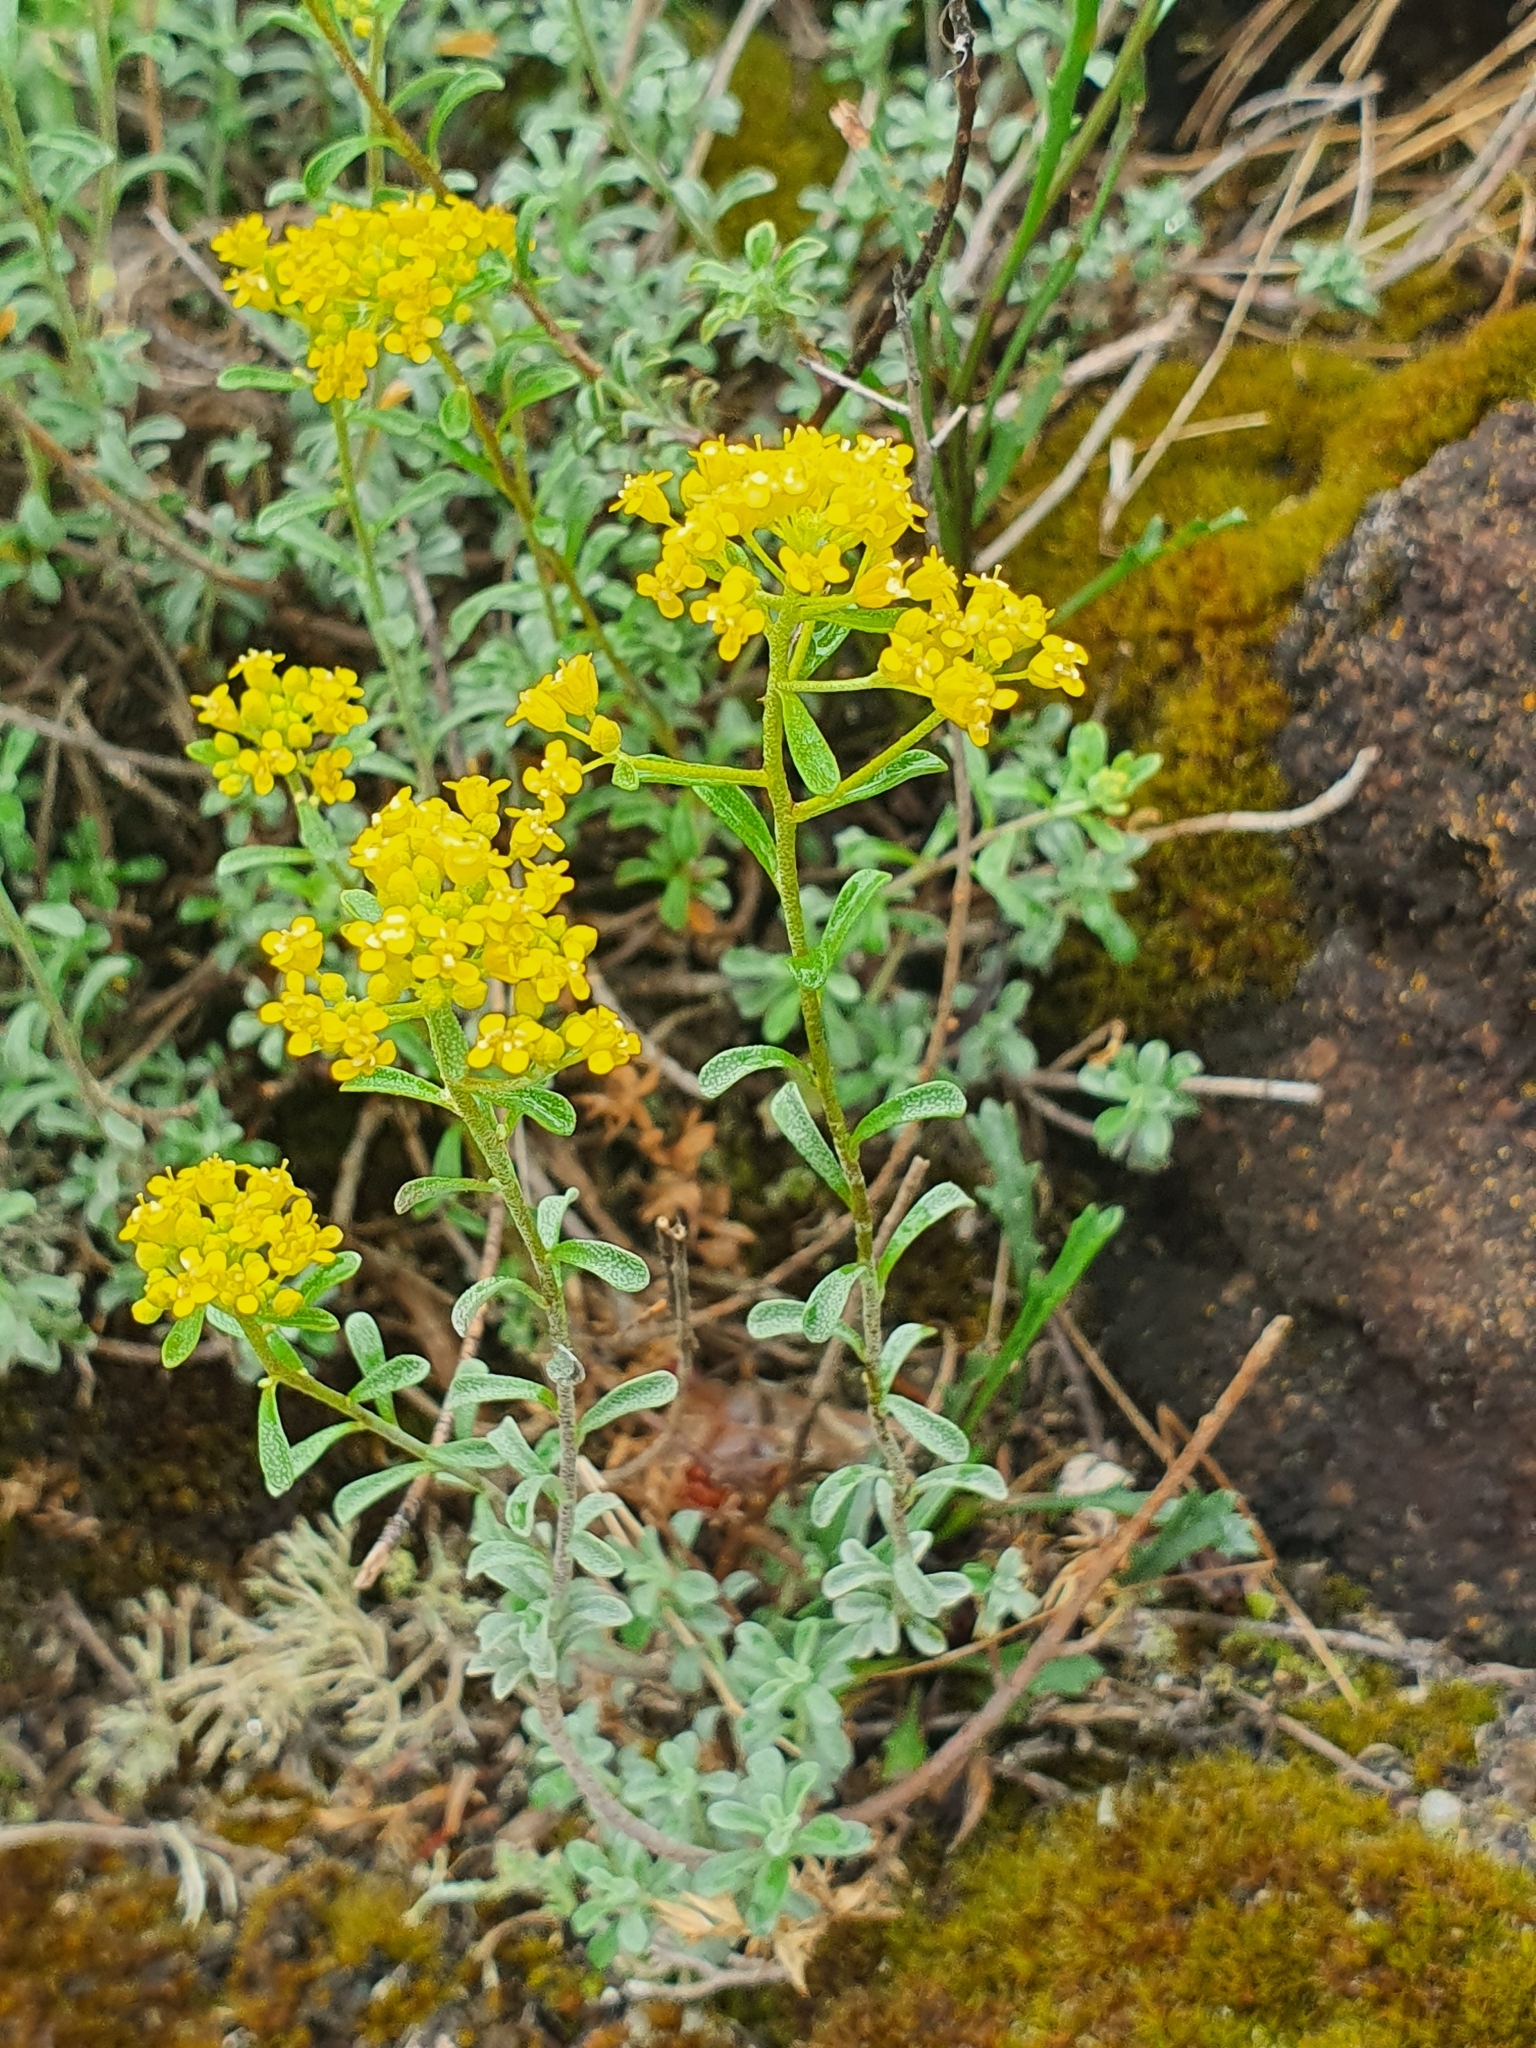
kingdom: Plantae
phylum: Tracheophyta
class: Magnoliopsida
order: Brassicales
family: Brassicaceae
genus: Odontarrhena
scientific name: Odontarrhena serpyllifolia
